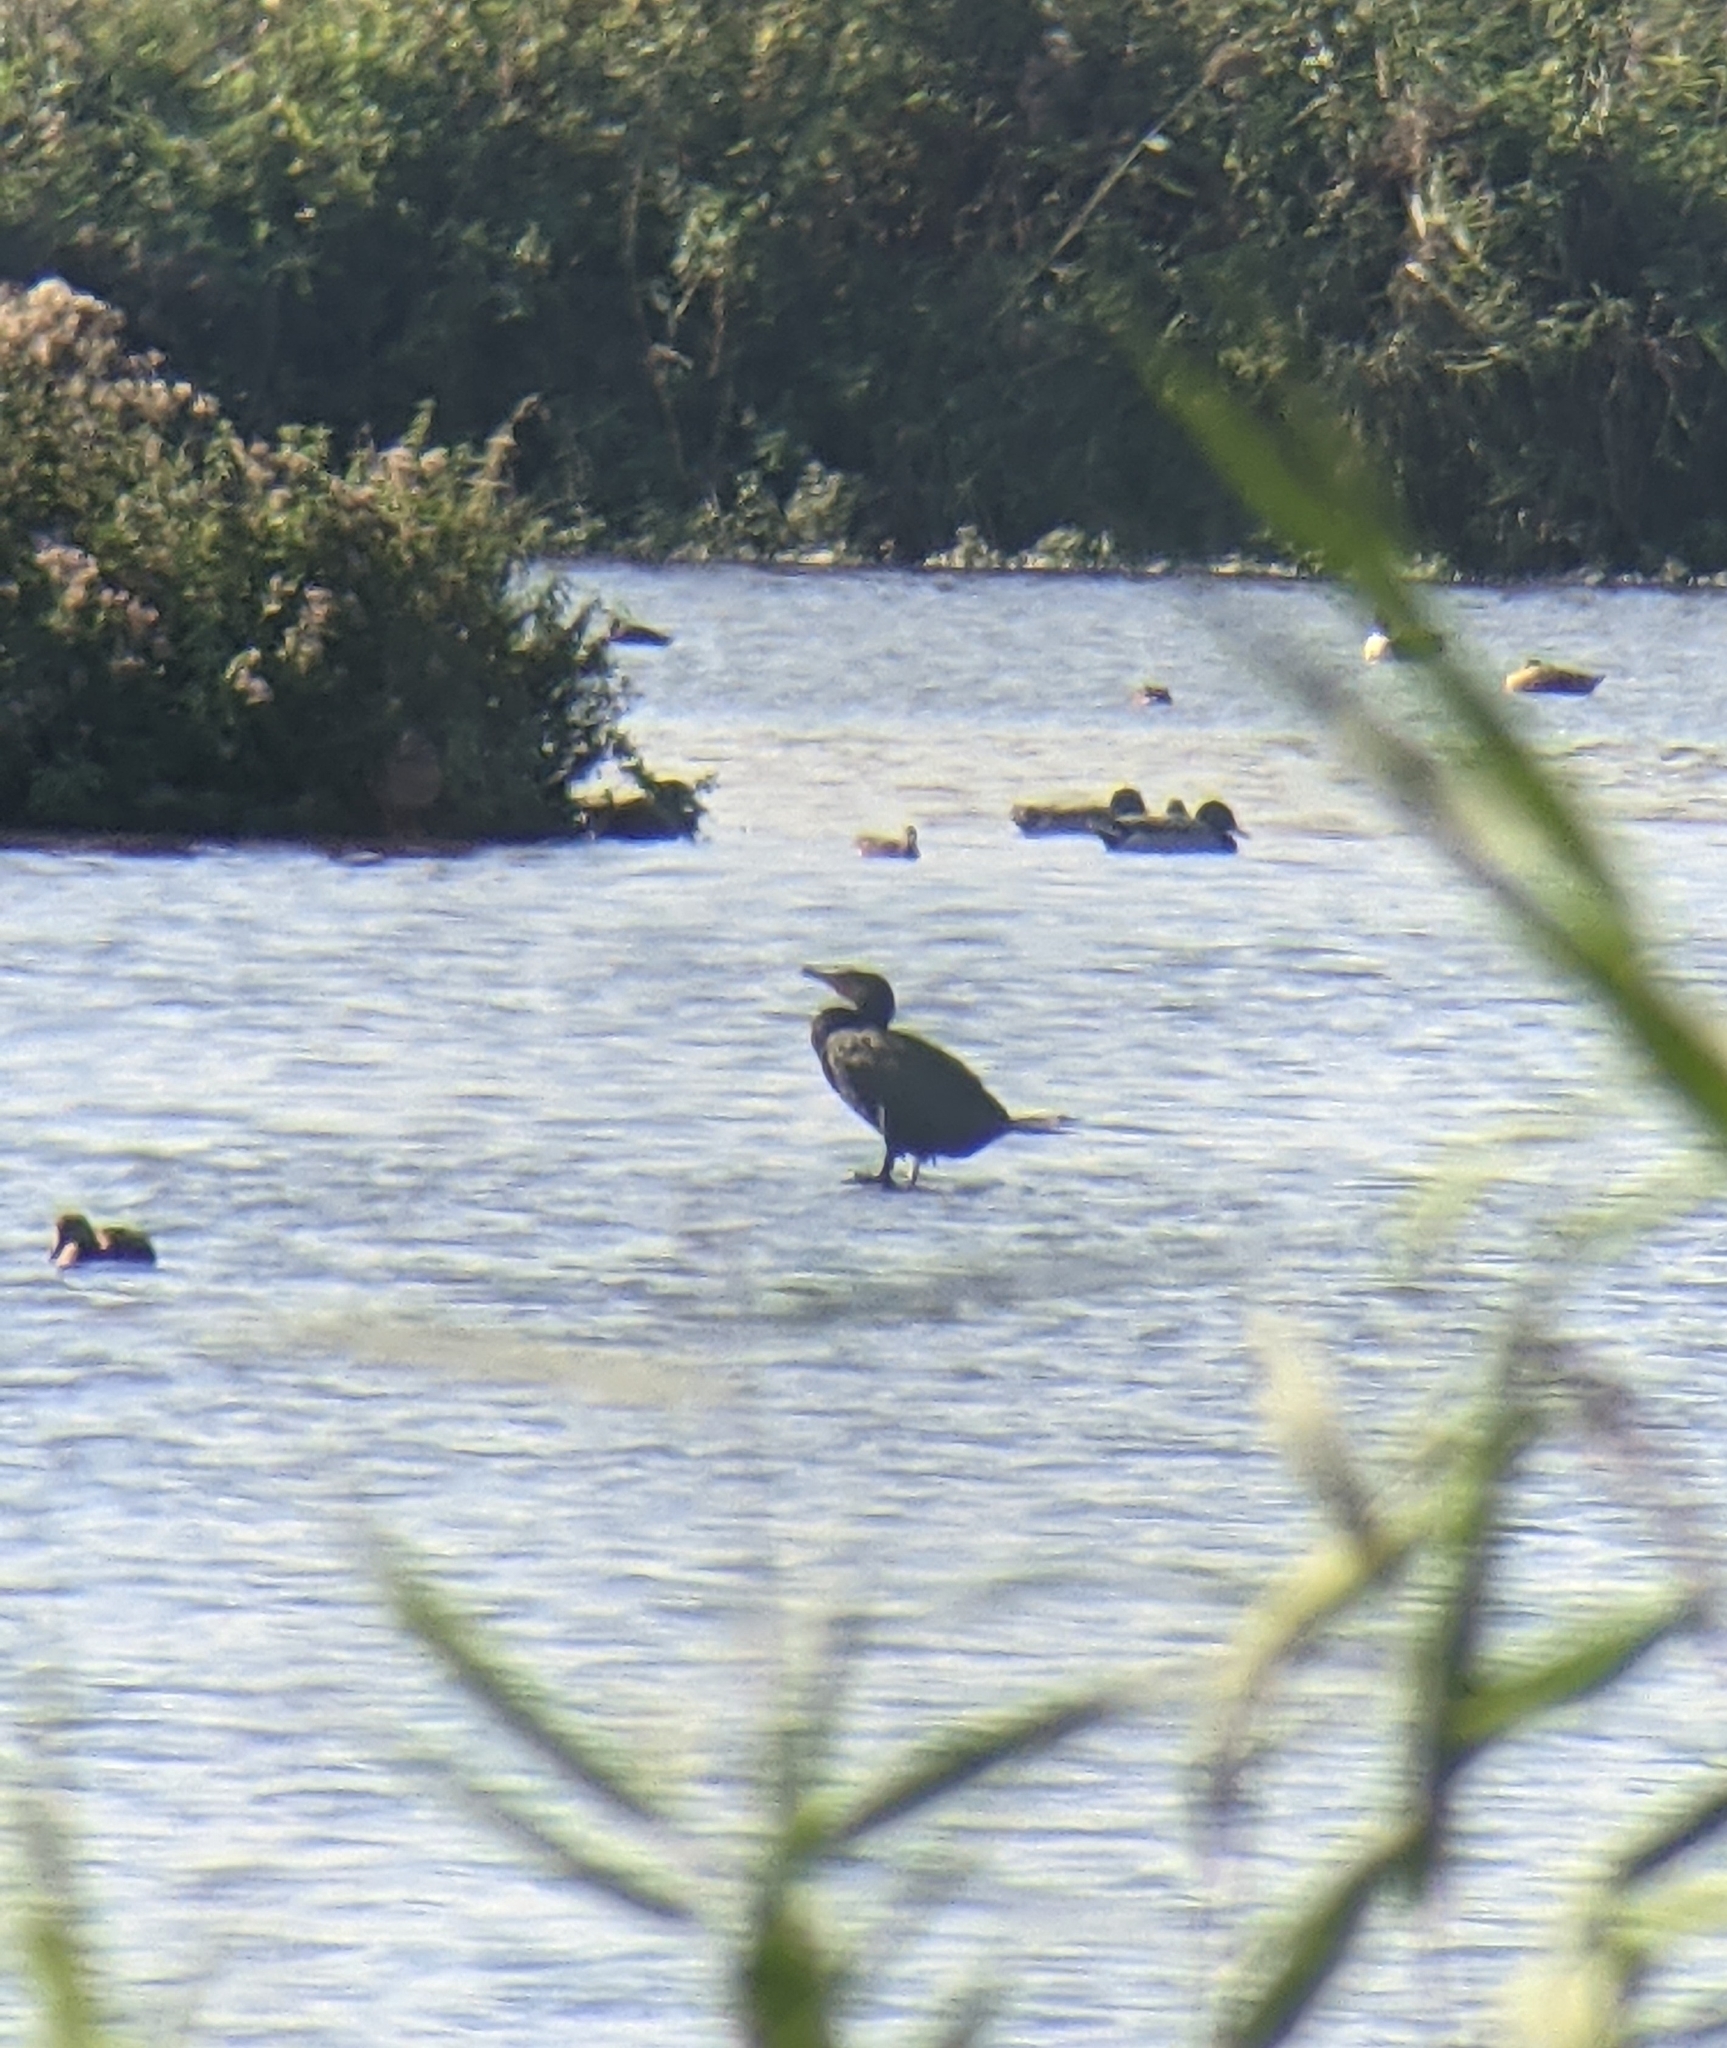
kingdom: Animalia
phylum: Chordata
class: Aves
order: Suliformes
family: Phalacrocoracidae
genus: Phalacrocorax
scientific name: Phalacrocorax carbo
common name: Great cormorant
